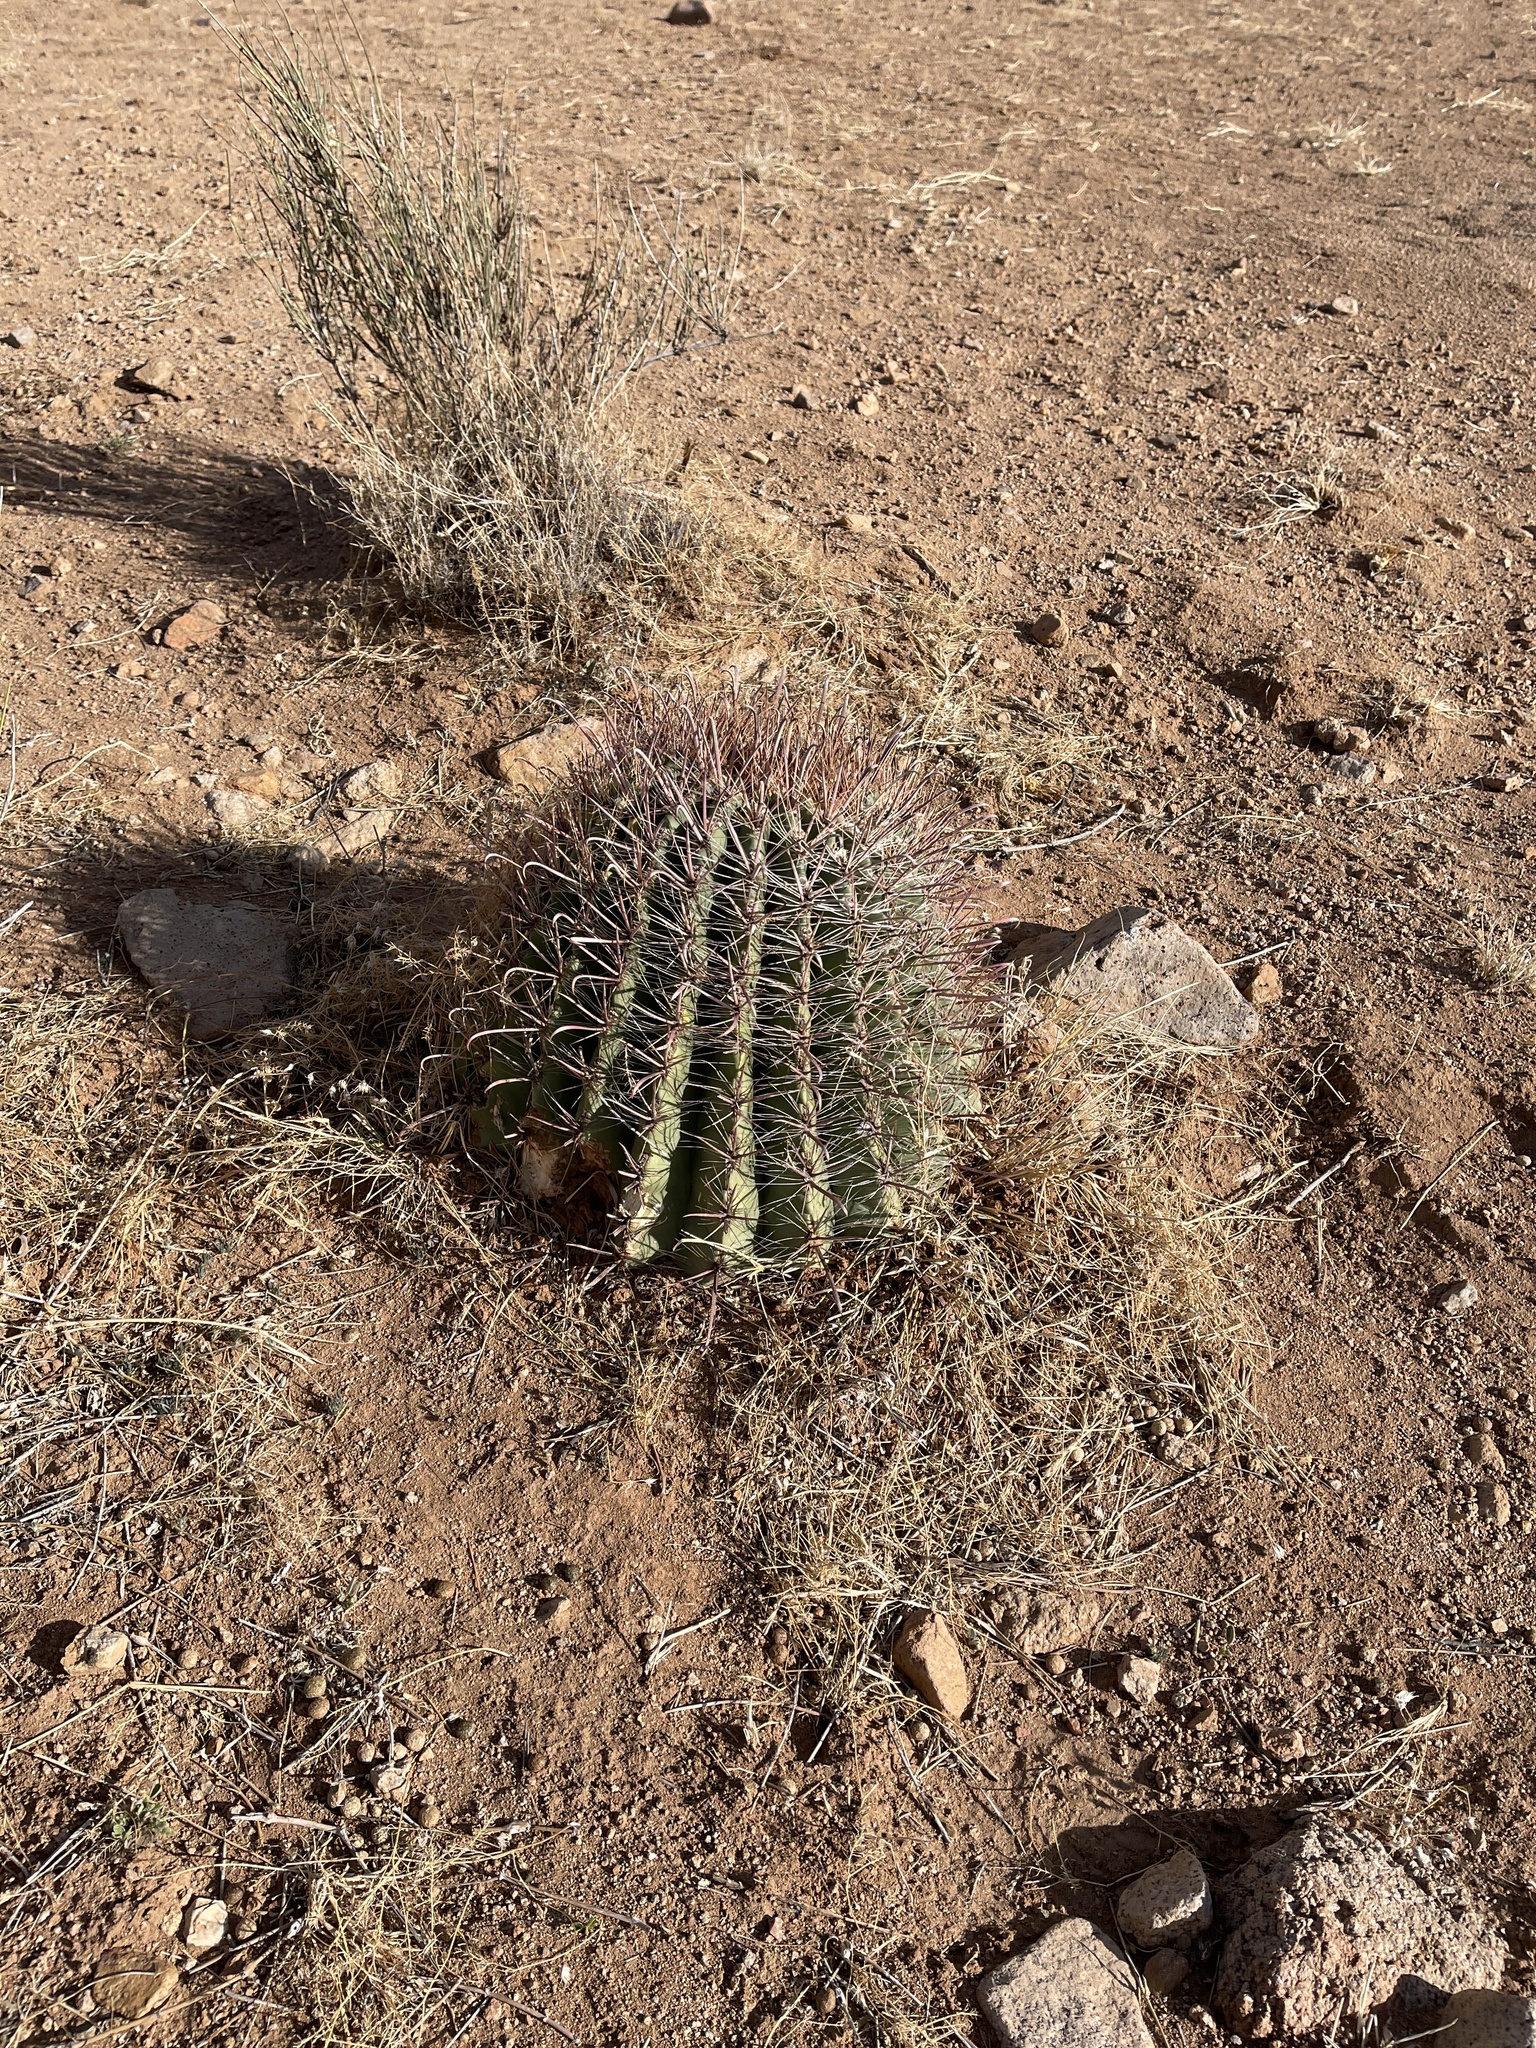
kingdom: Plantae
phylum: Tracheophyta
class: Magnoliopsida
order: Caryophyllales
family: Cactaceae
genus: Ferocactus
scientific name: Ferocactus wislizeni
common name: Candy barrel cactus
